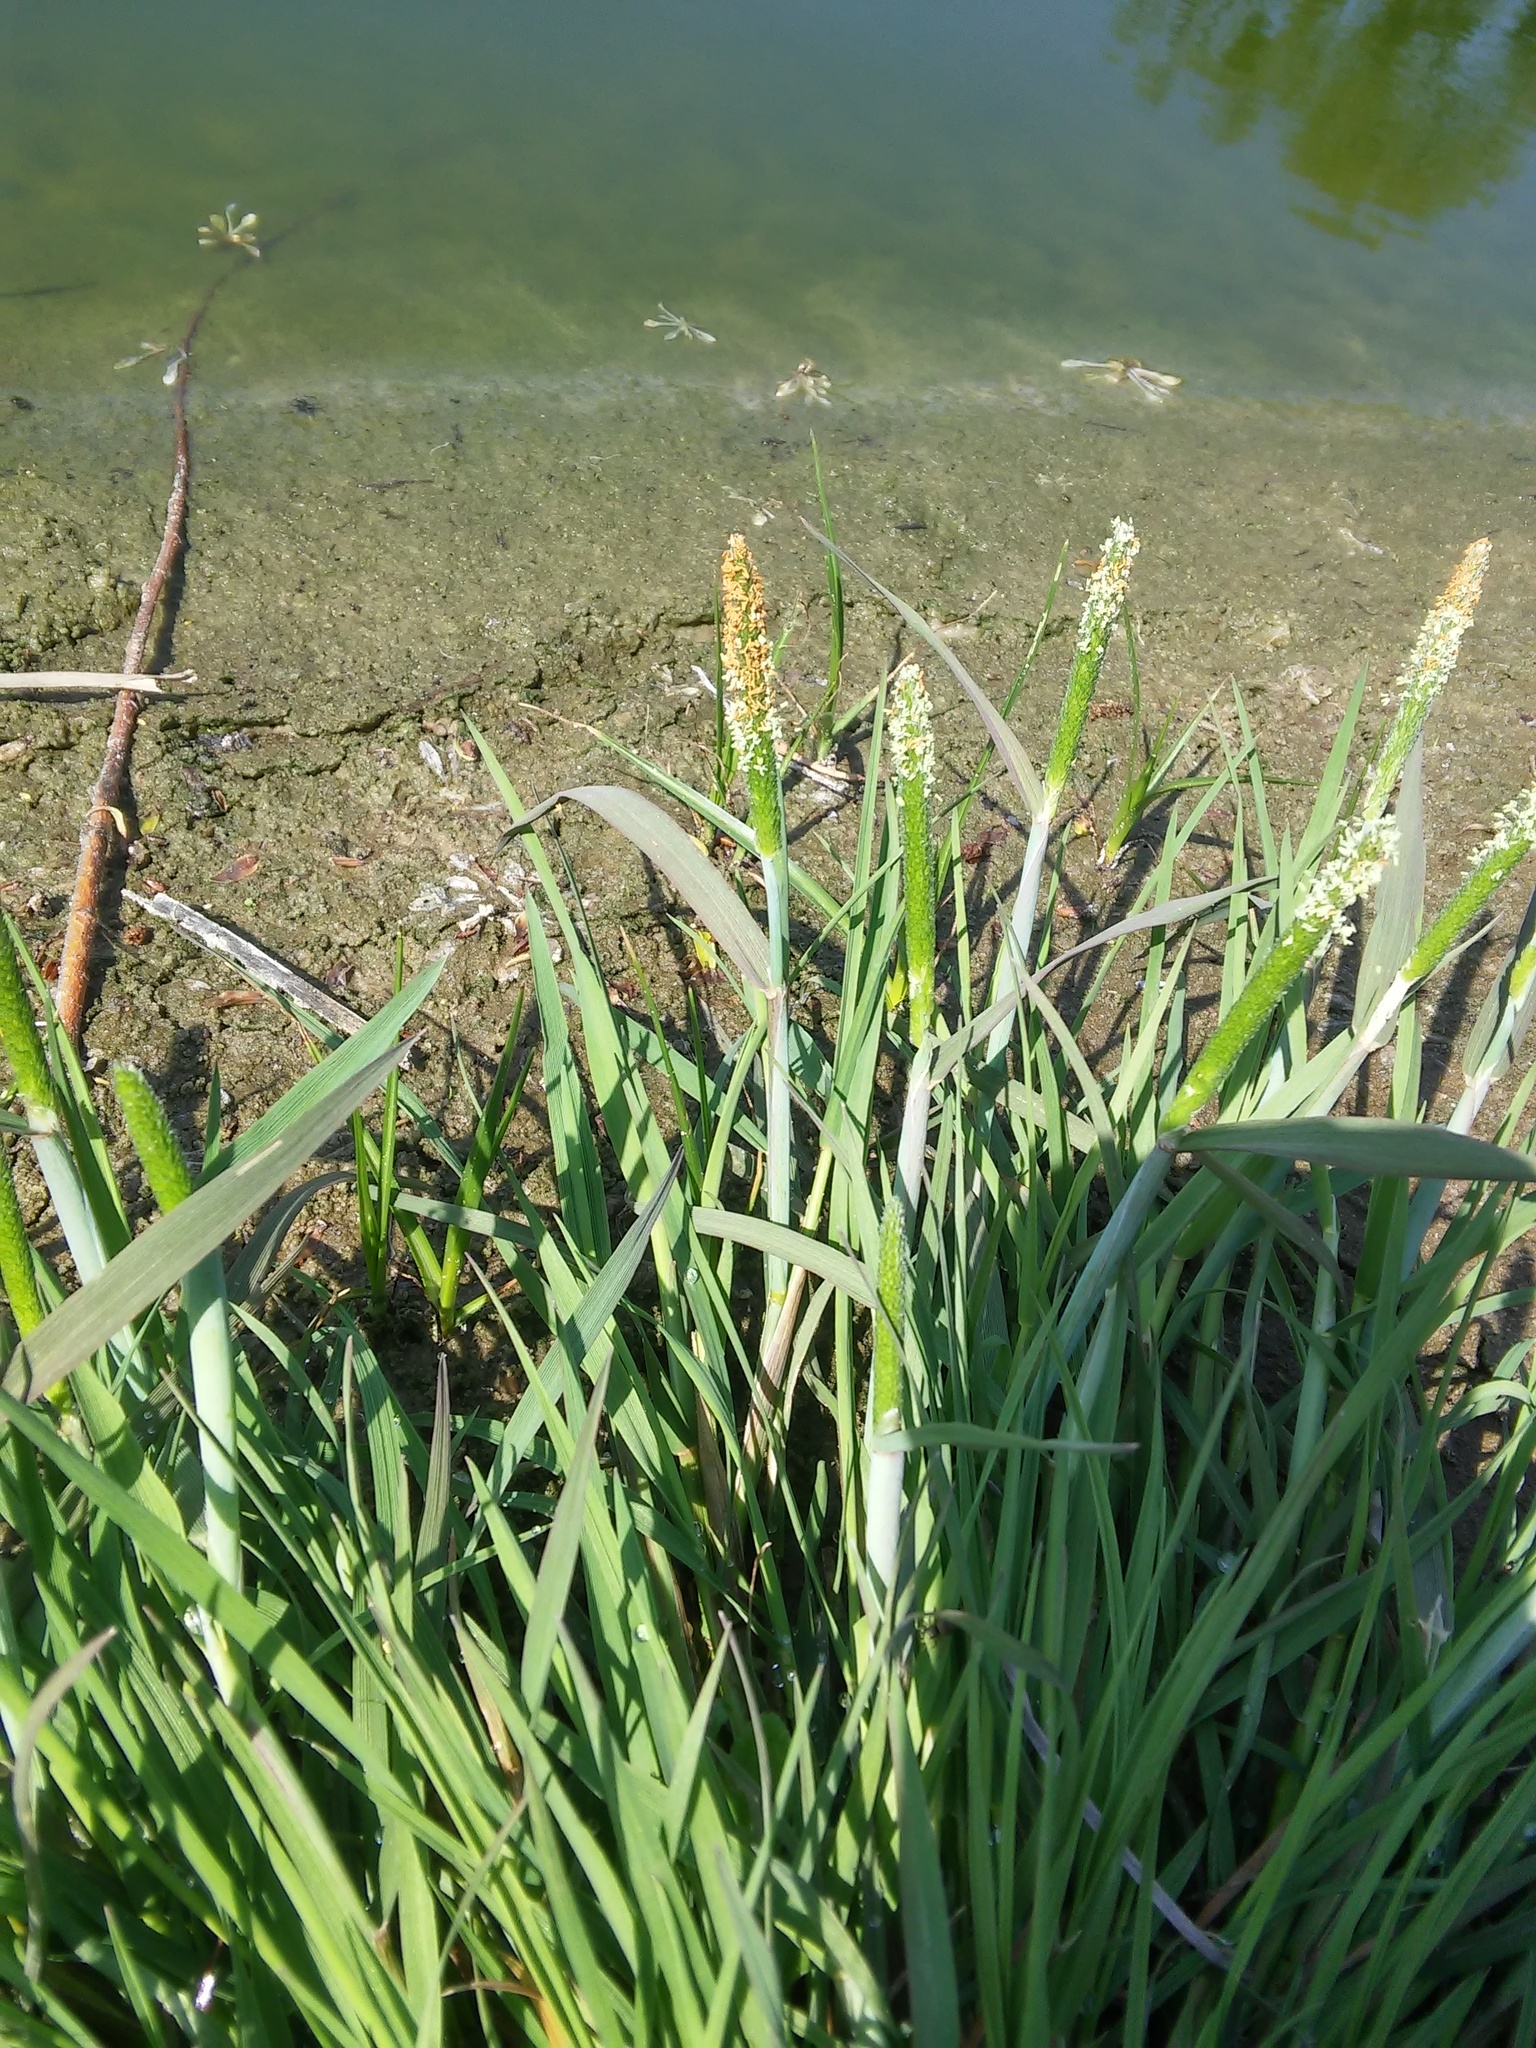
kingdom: Plantae
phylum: Tracheophyta
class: Liliopsida
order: Poales
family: Poaceae
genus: Alopecurus
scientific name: Alopecurus aequalis
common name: Orange foxtail
